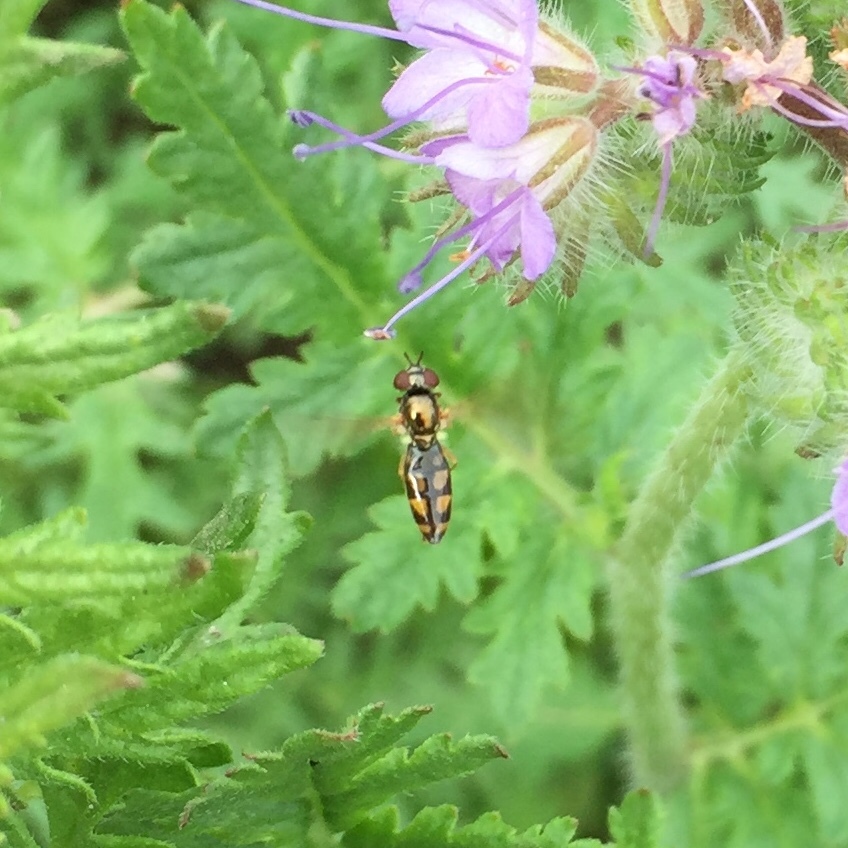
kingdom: Animalia
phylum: Arthropoda
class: Insecta
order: Diptera
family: Syrphidae
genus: Melanostoma
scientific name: Melanostoma mellina
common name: Hover fly
